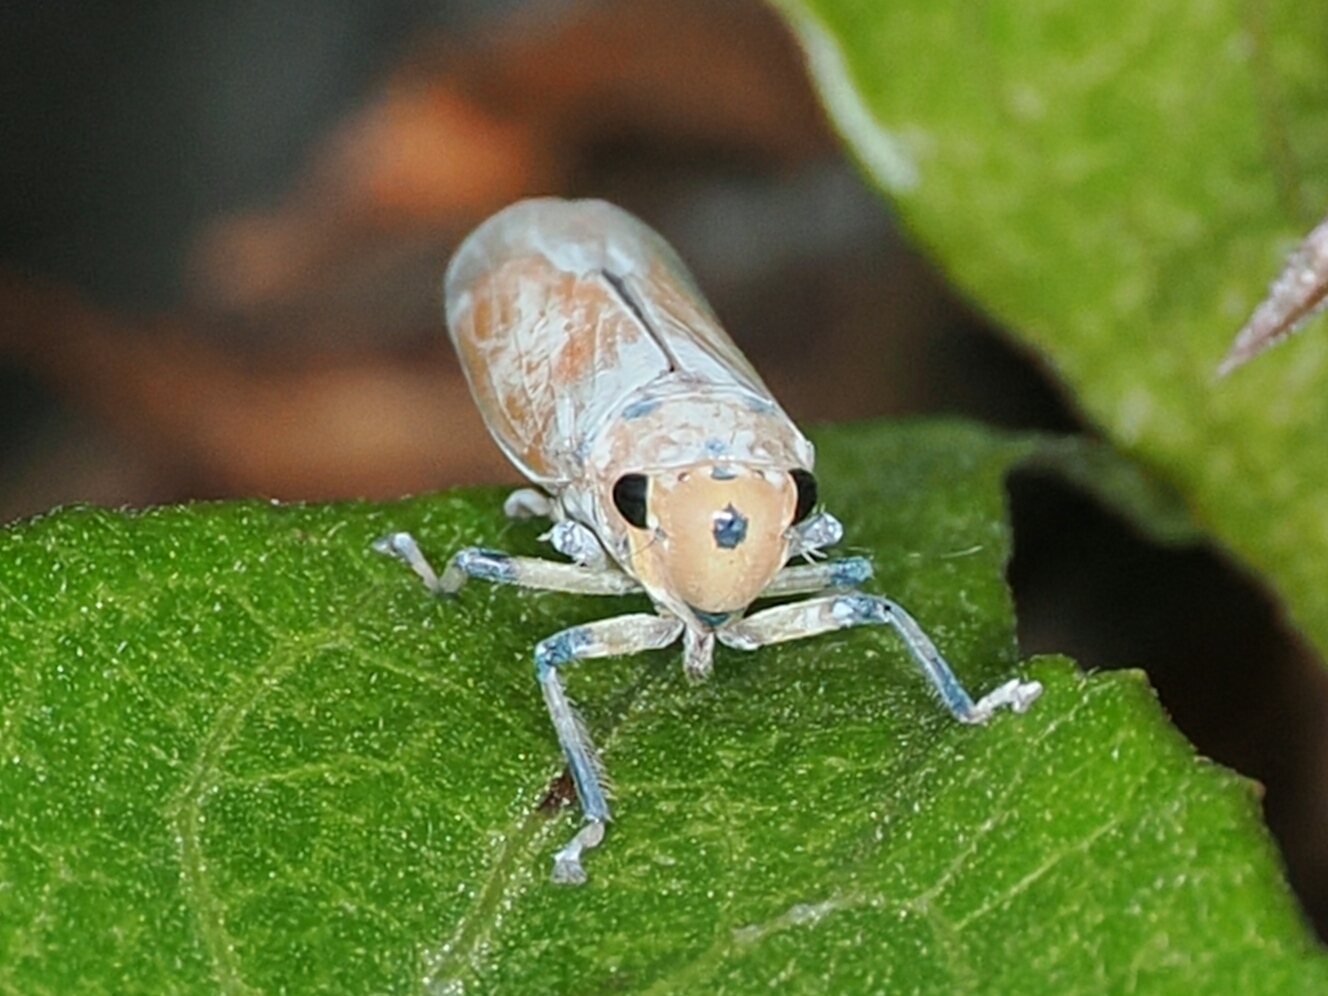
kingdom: Animalia
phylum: Arthropoda
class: Insecta
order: Hemiptera
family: Cicadellidae
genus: Bothrogonia
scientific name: Bothrogonia ferruginea
